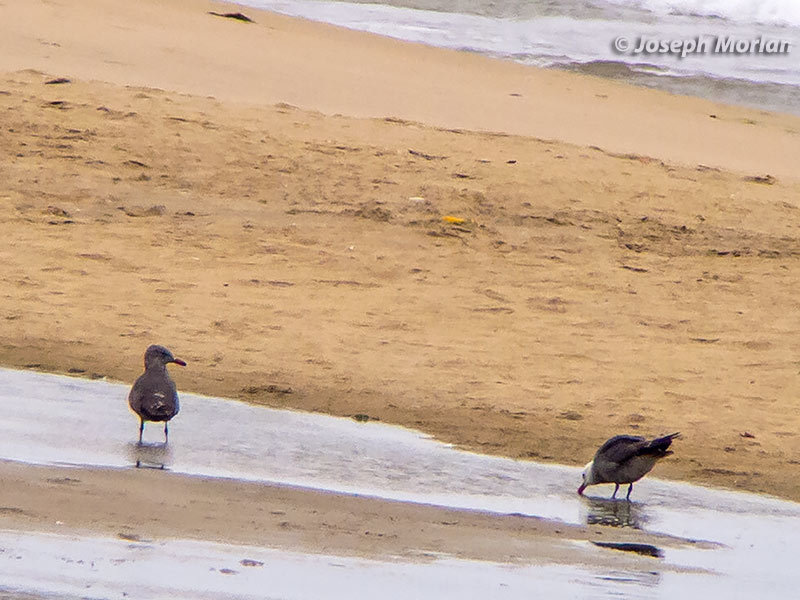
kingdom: Animalia
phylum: Chordata
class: Aves
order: Charadriiformes
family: Laridae
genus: Larus
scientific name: Larus heermanni
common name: Heermann's gull
